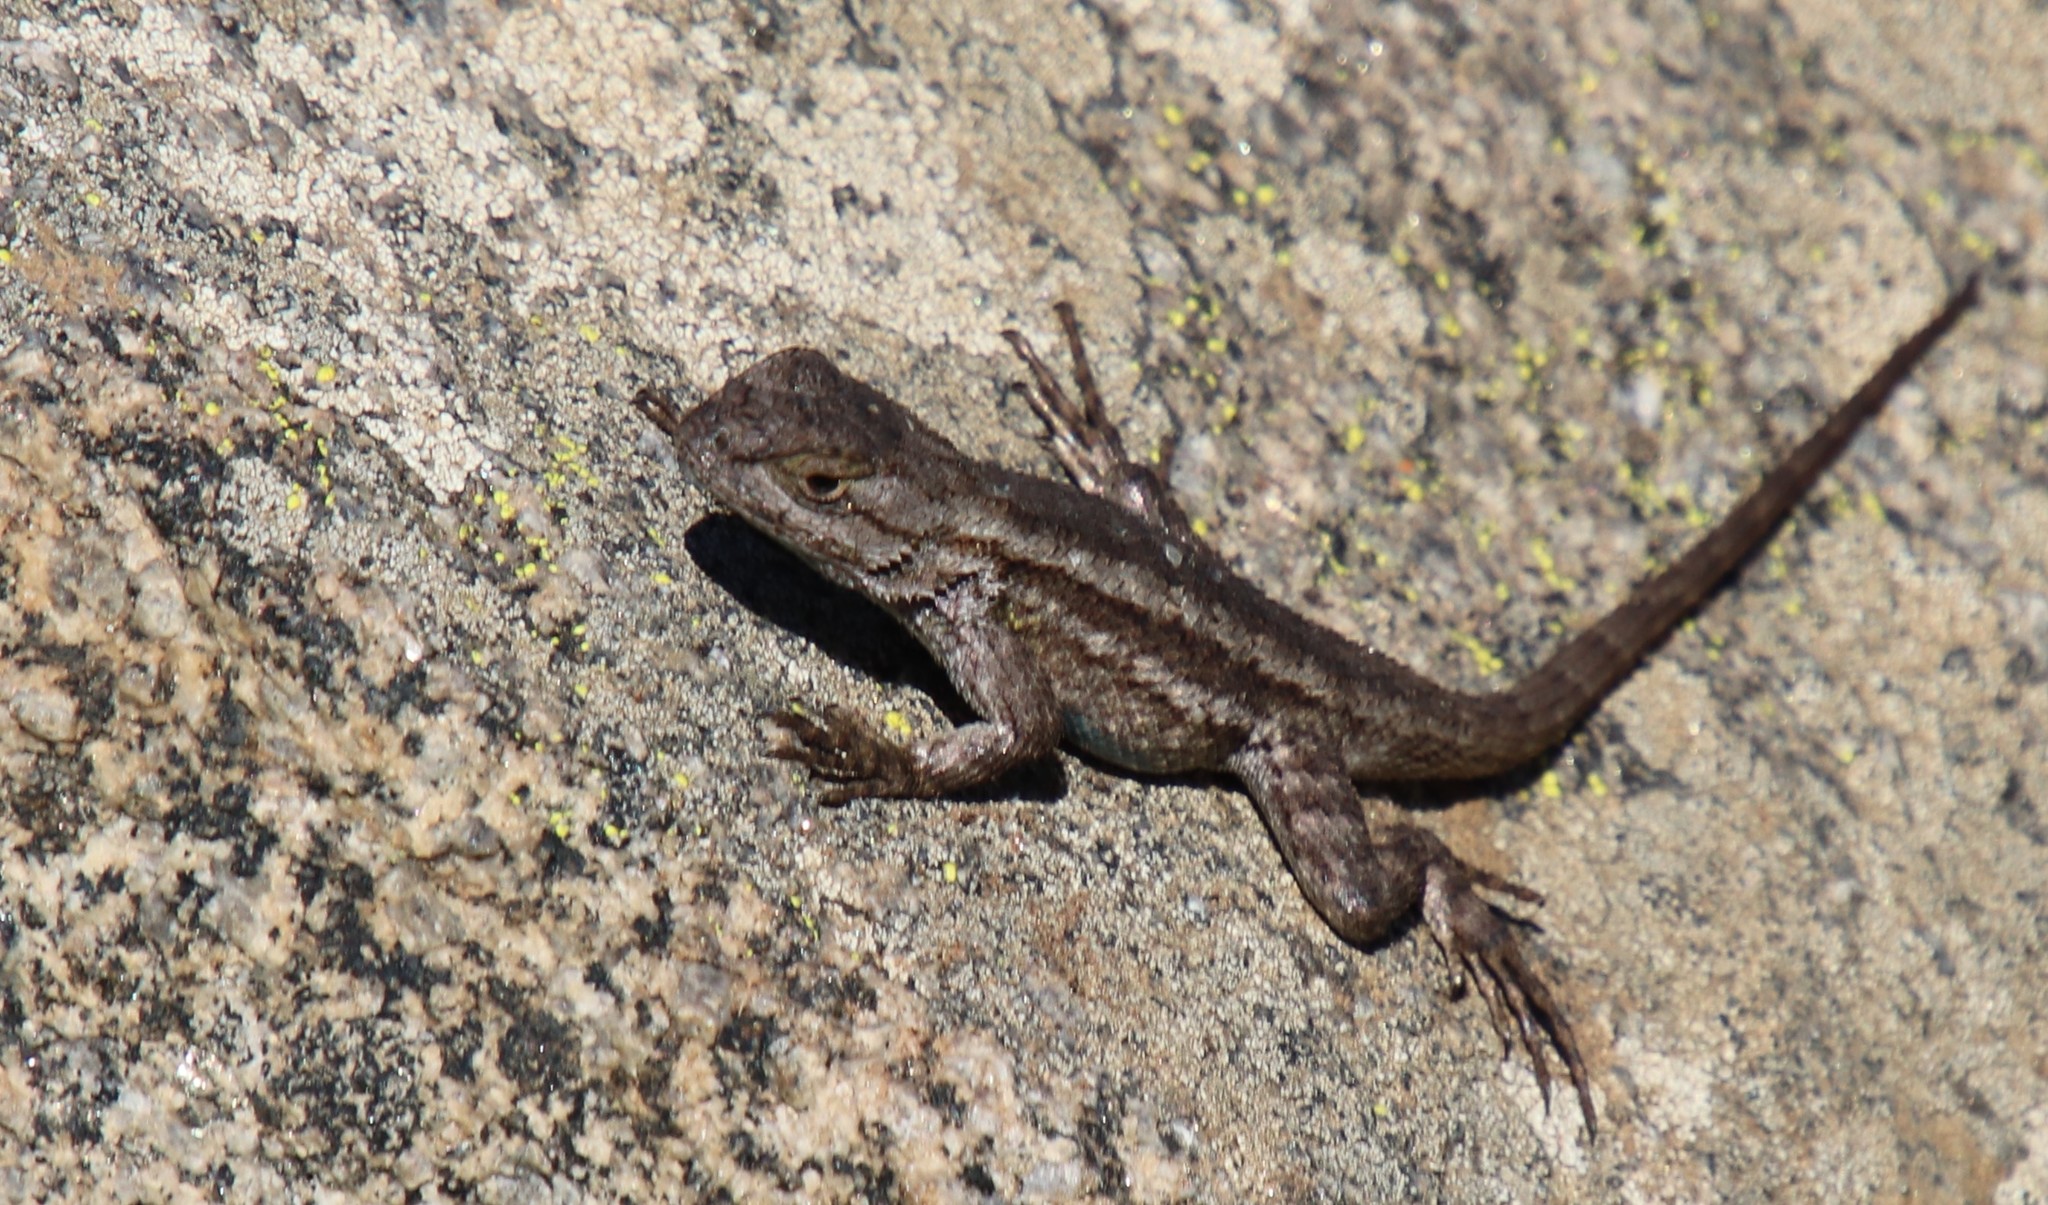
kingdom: Animalia
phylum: Chordata
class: Squamata
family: Phrynosomatidae
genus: Sceloporus
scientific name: Sceloporus occidentalis
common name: Western fence lizard
